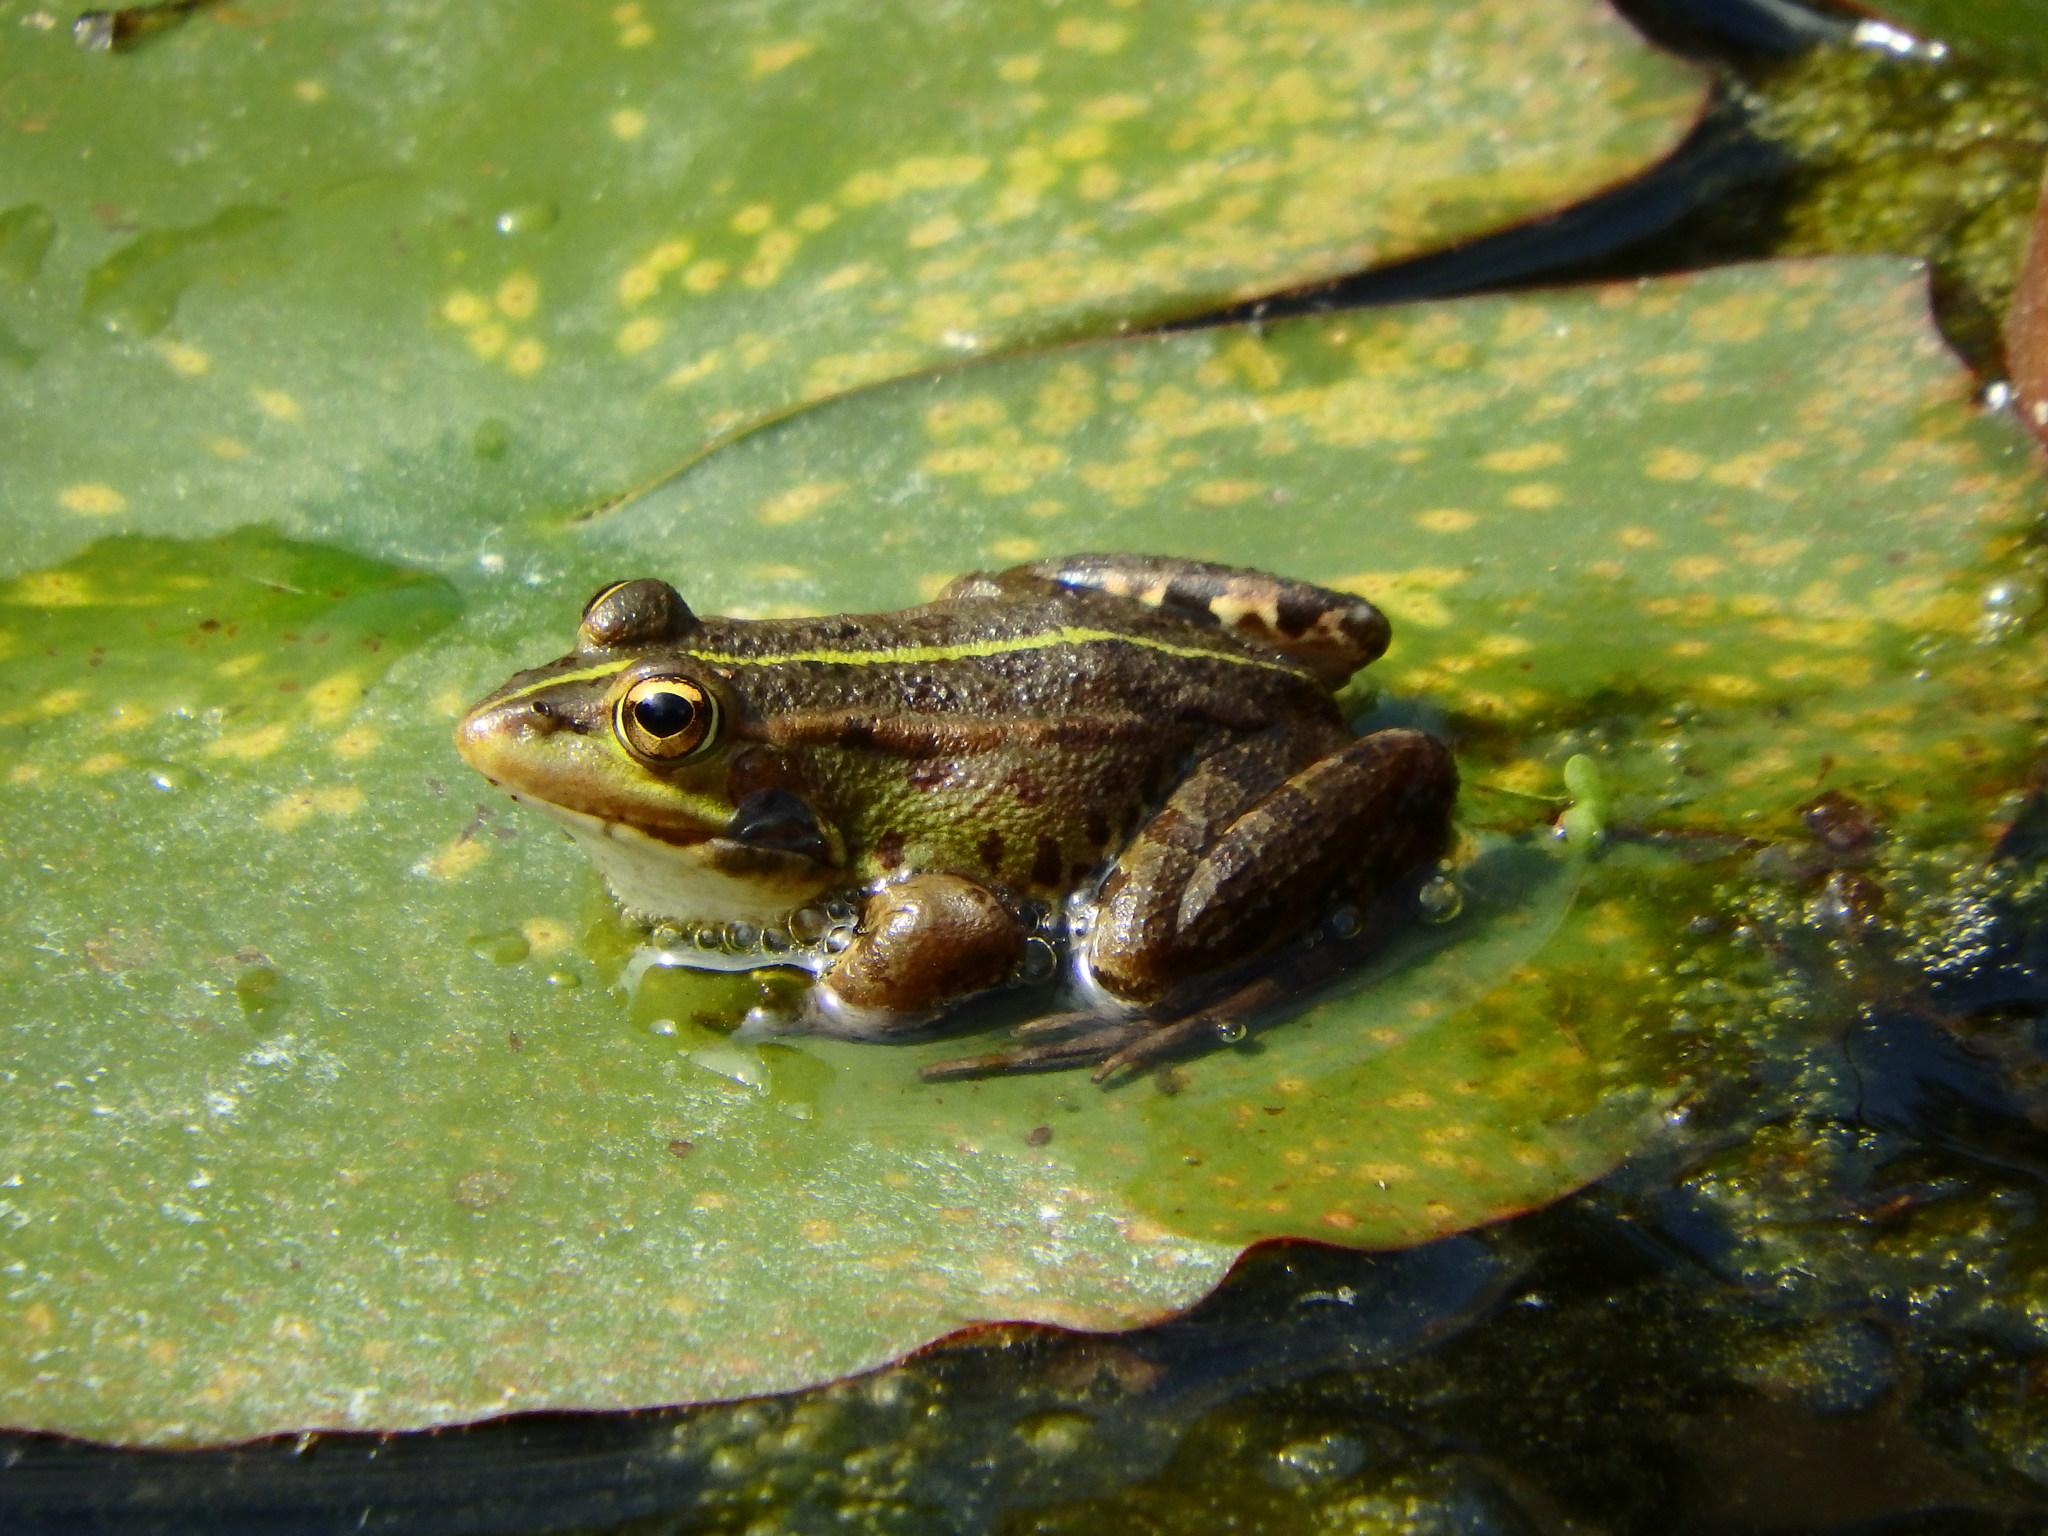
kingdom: Animalia
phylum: Chordata
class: Amphibia
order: Anura
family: Ranidae
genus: Pelophylax
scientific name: Pelophylax perezi
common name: Perez's frog
